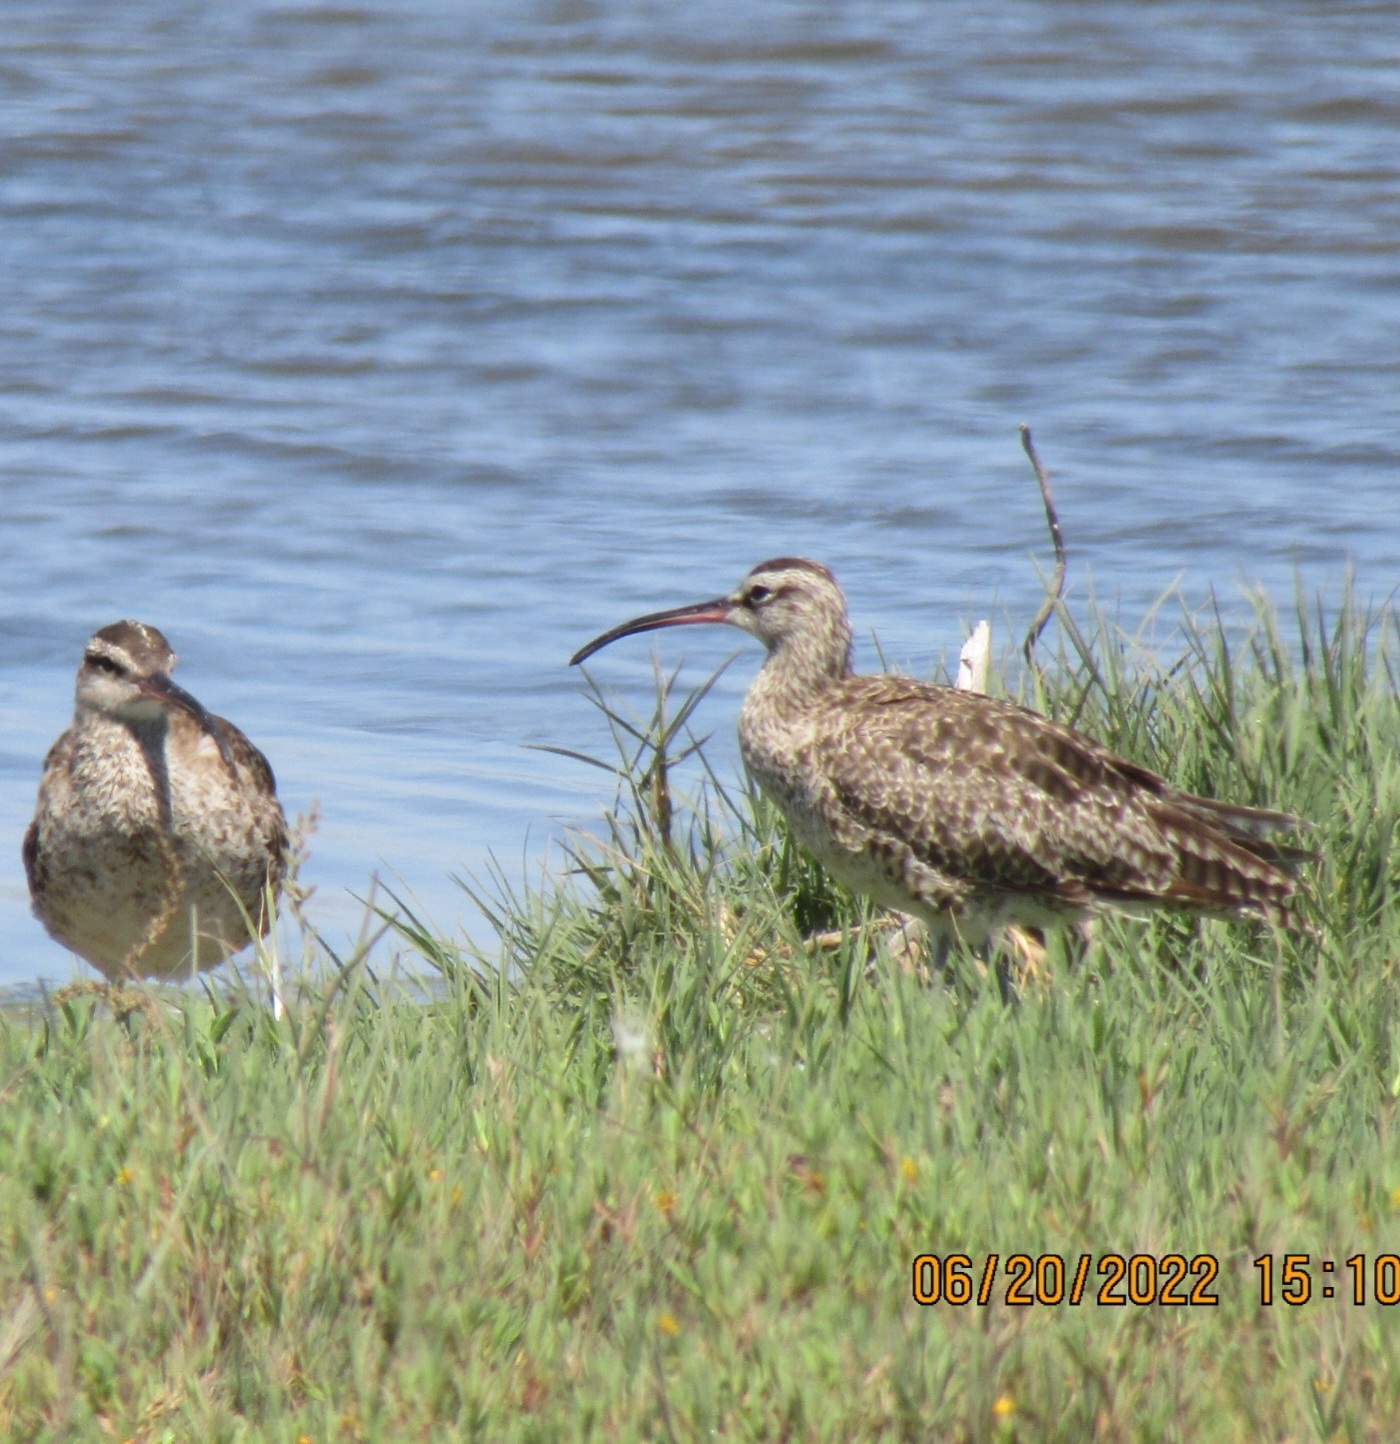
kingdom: Animalia
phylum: Chordata
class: Aves
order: Charadriiformes
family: Scolopacidae
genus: Numenius
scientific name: Numenius phaeopus
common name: Whimbrel
